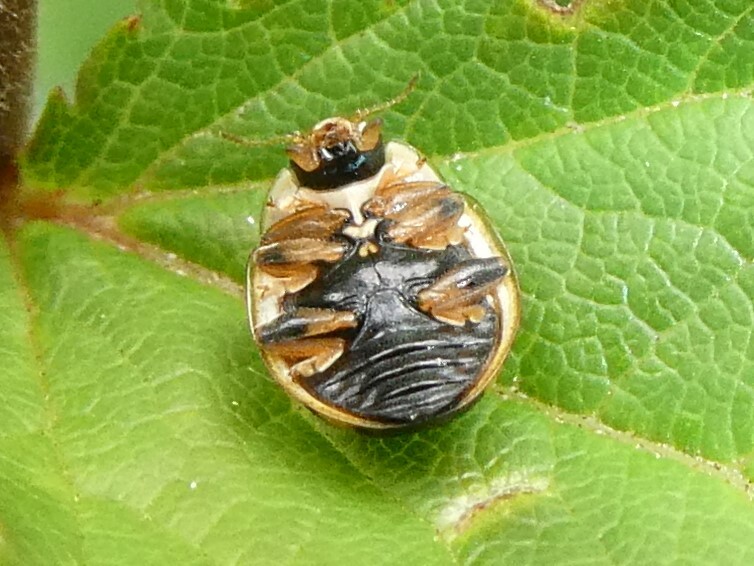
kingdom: Animalia
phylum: Arthropoda
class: Insecta
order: Coleoptera
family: Coccinellidae
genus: Propylaea
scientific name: Propylaea quatuordecimpunctata
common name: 14-spotted ladybird beetle
